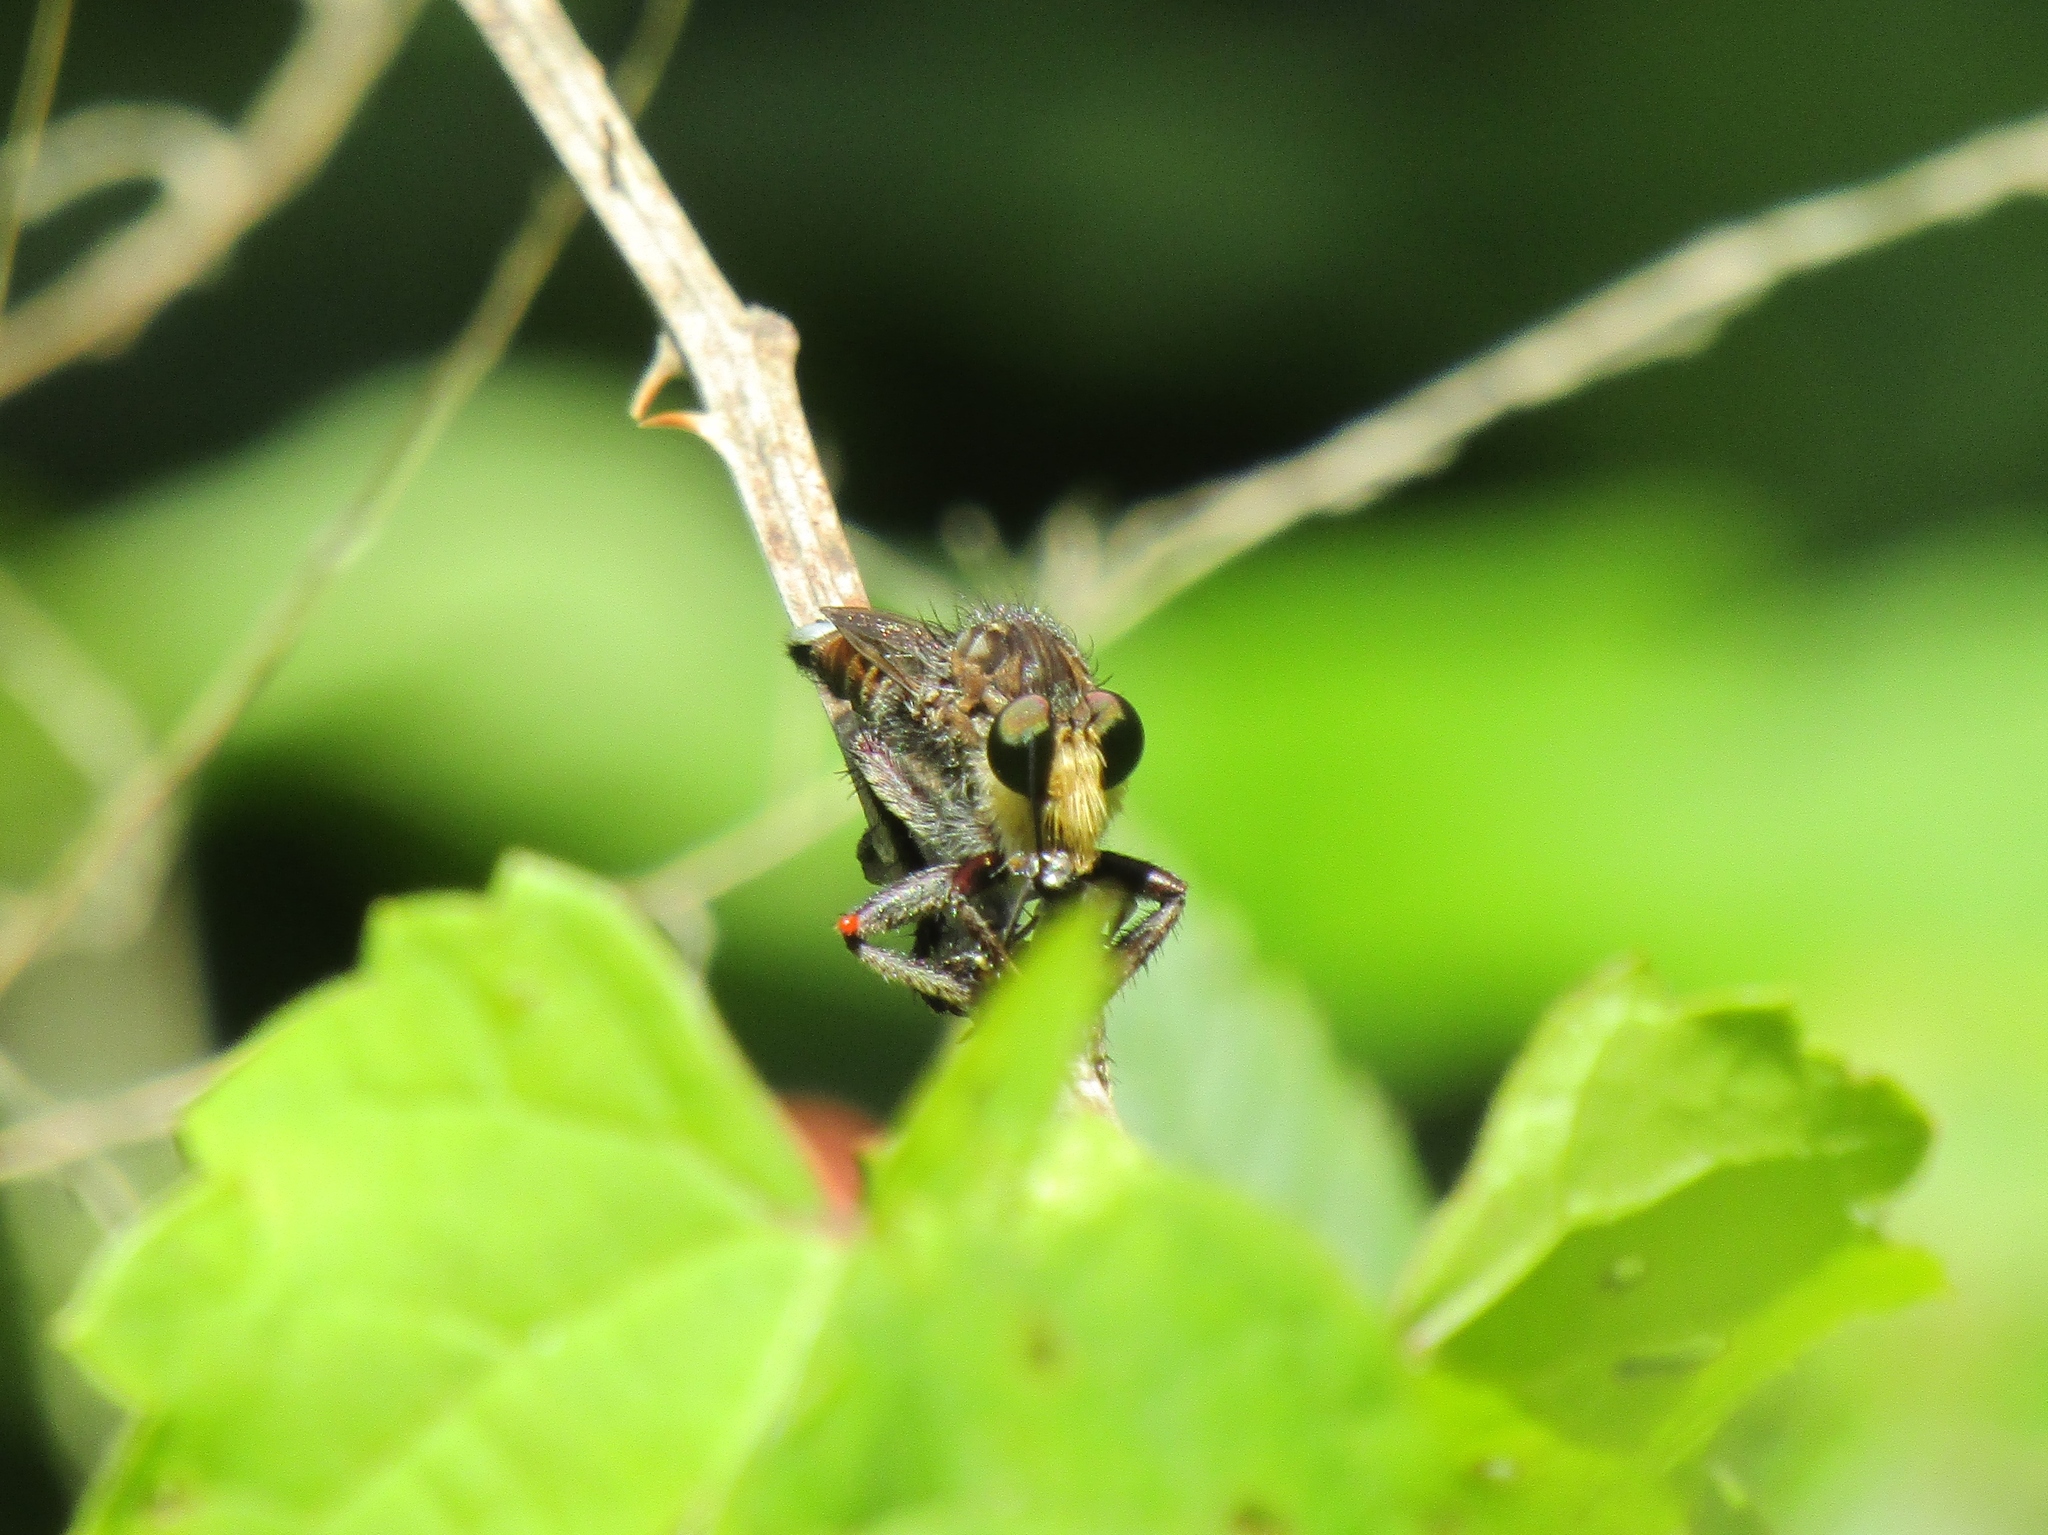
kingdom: Animalia
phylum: Arthropoda
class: Insecta
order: Diptera
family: Asilidae
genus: Promachus
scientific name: Promachus bastardii
